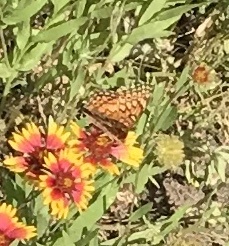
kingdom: Animalia
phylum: Arthropoda
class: Insecta
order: Lepidoptera
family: Nymphalidae
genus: Euptoieta
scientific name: Euptoieta claudia
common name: Variegated fritillary
